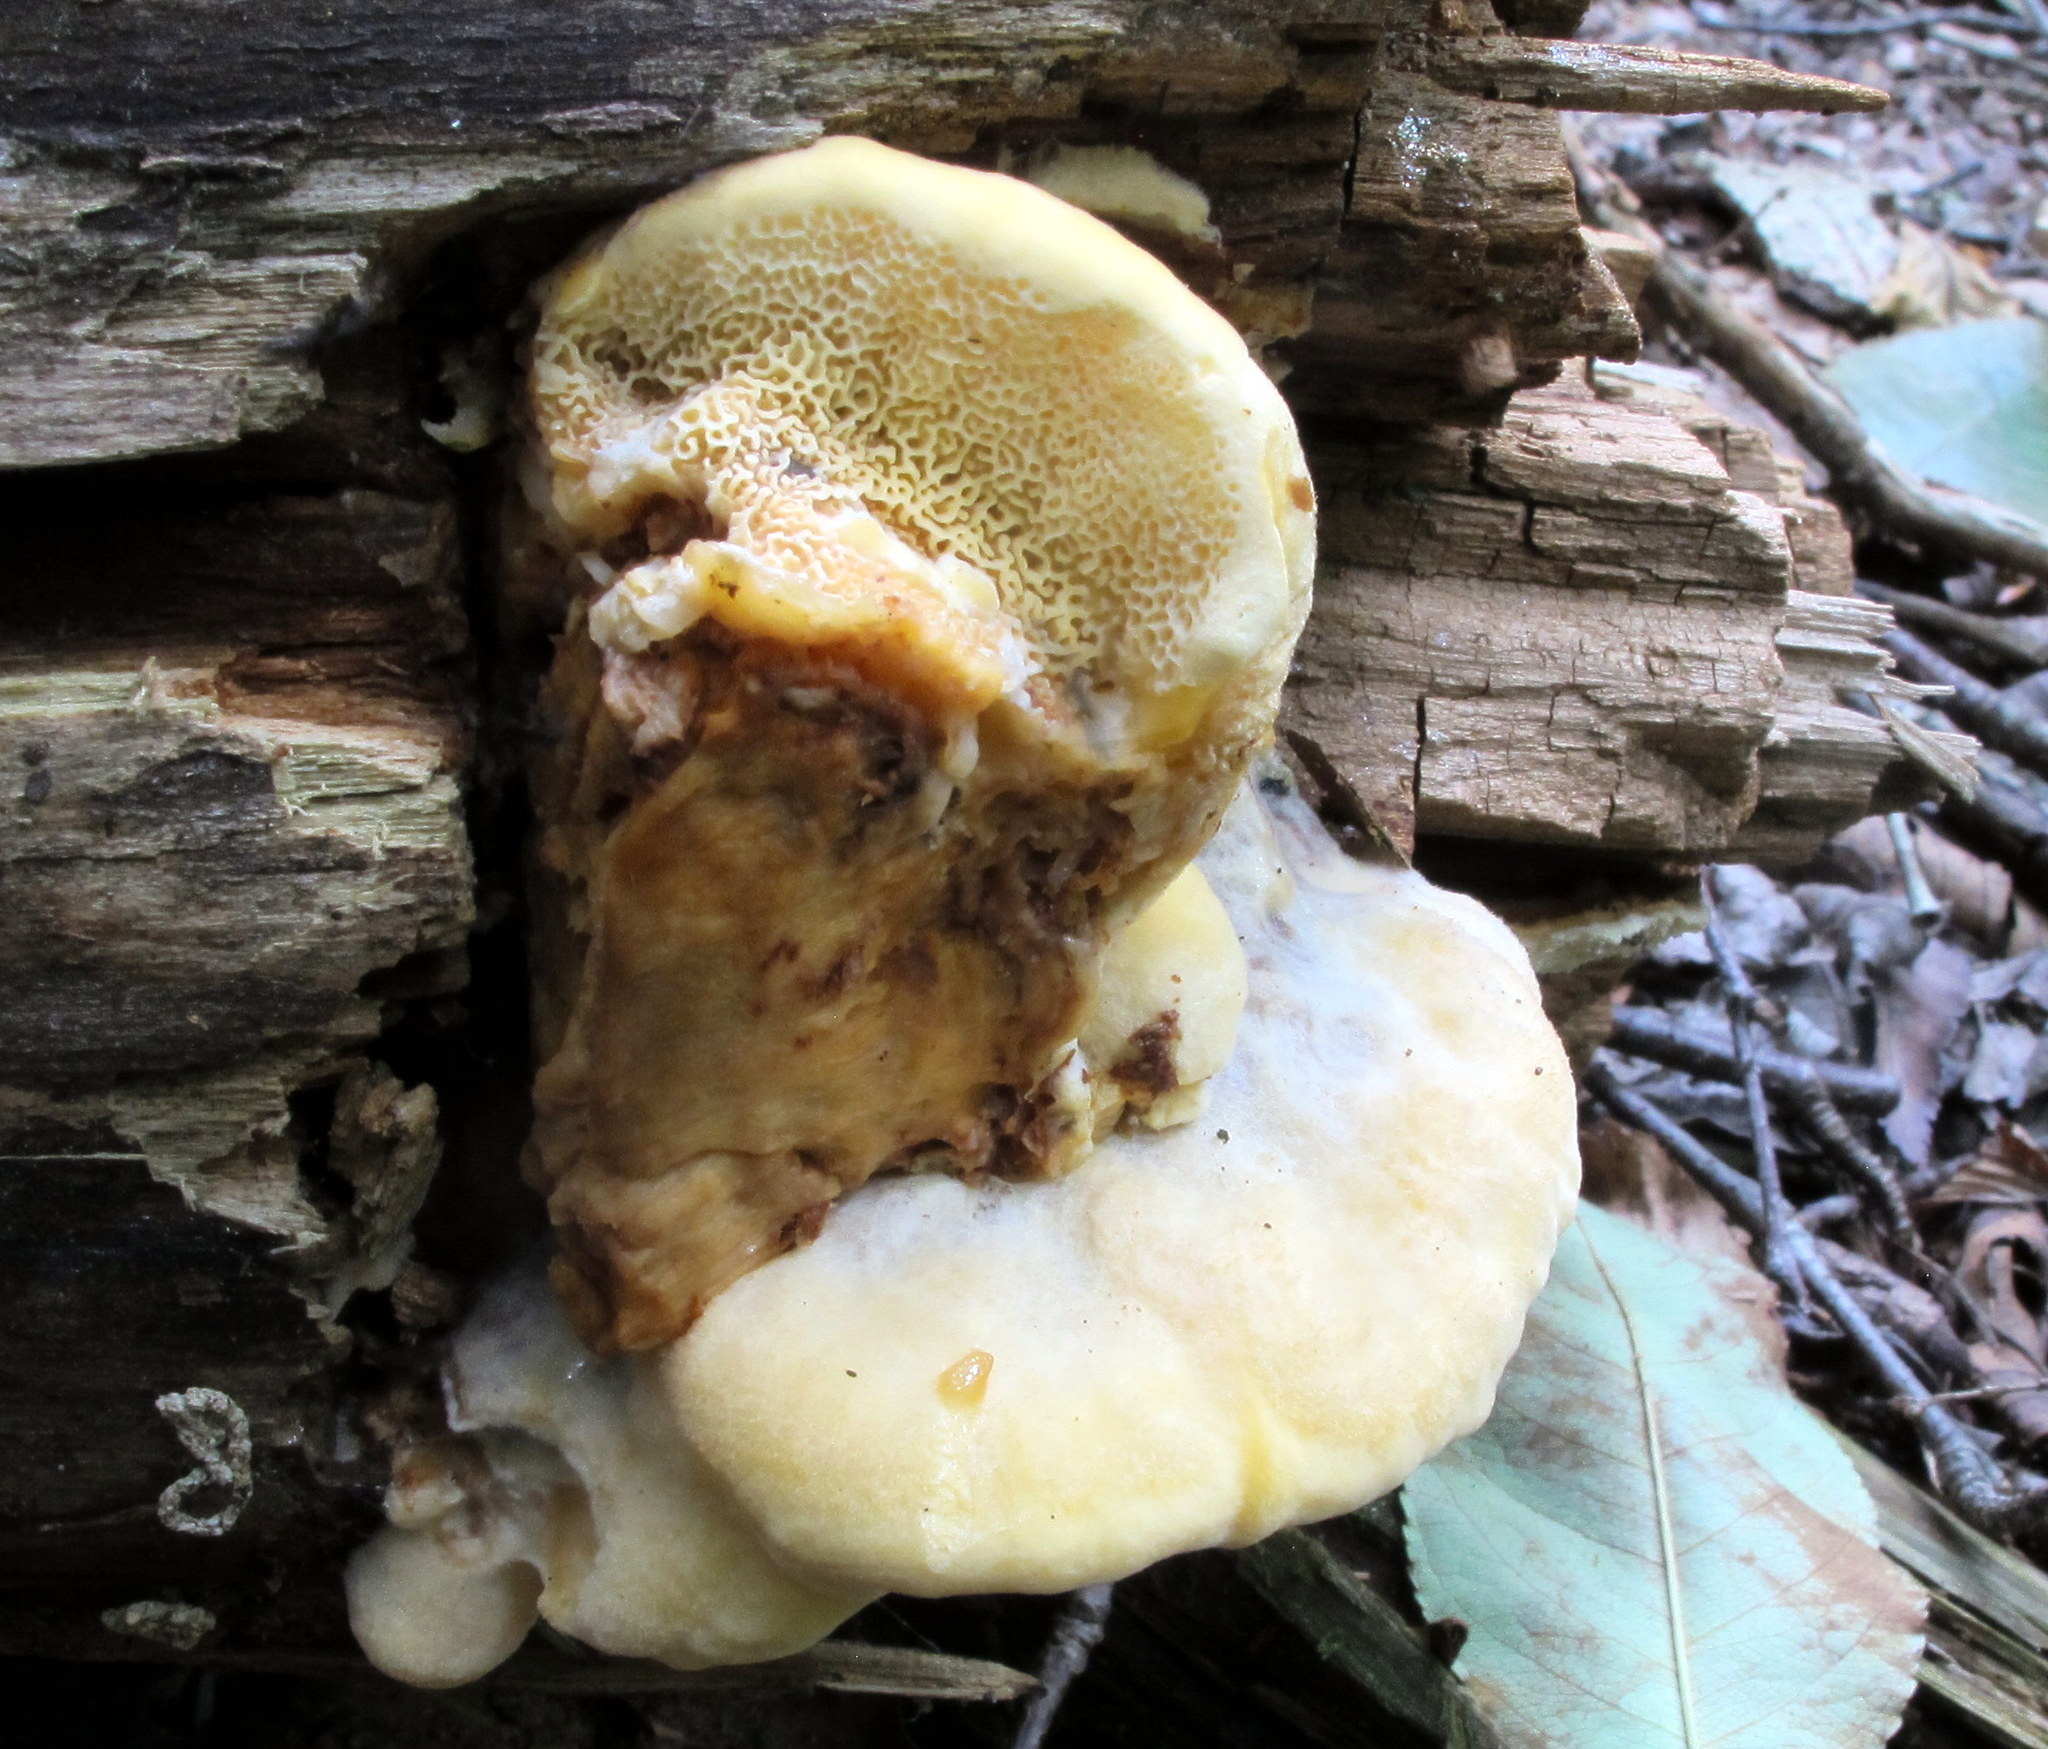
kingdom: Fungi
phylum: Basidiomycota
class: Agaricomycetes
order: Polyporales
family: Meruliaceae
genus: Spongipellis
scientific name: Spongipellis
